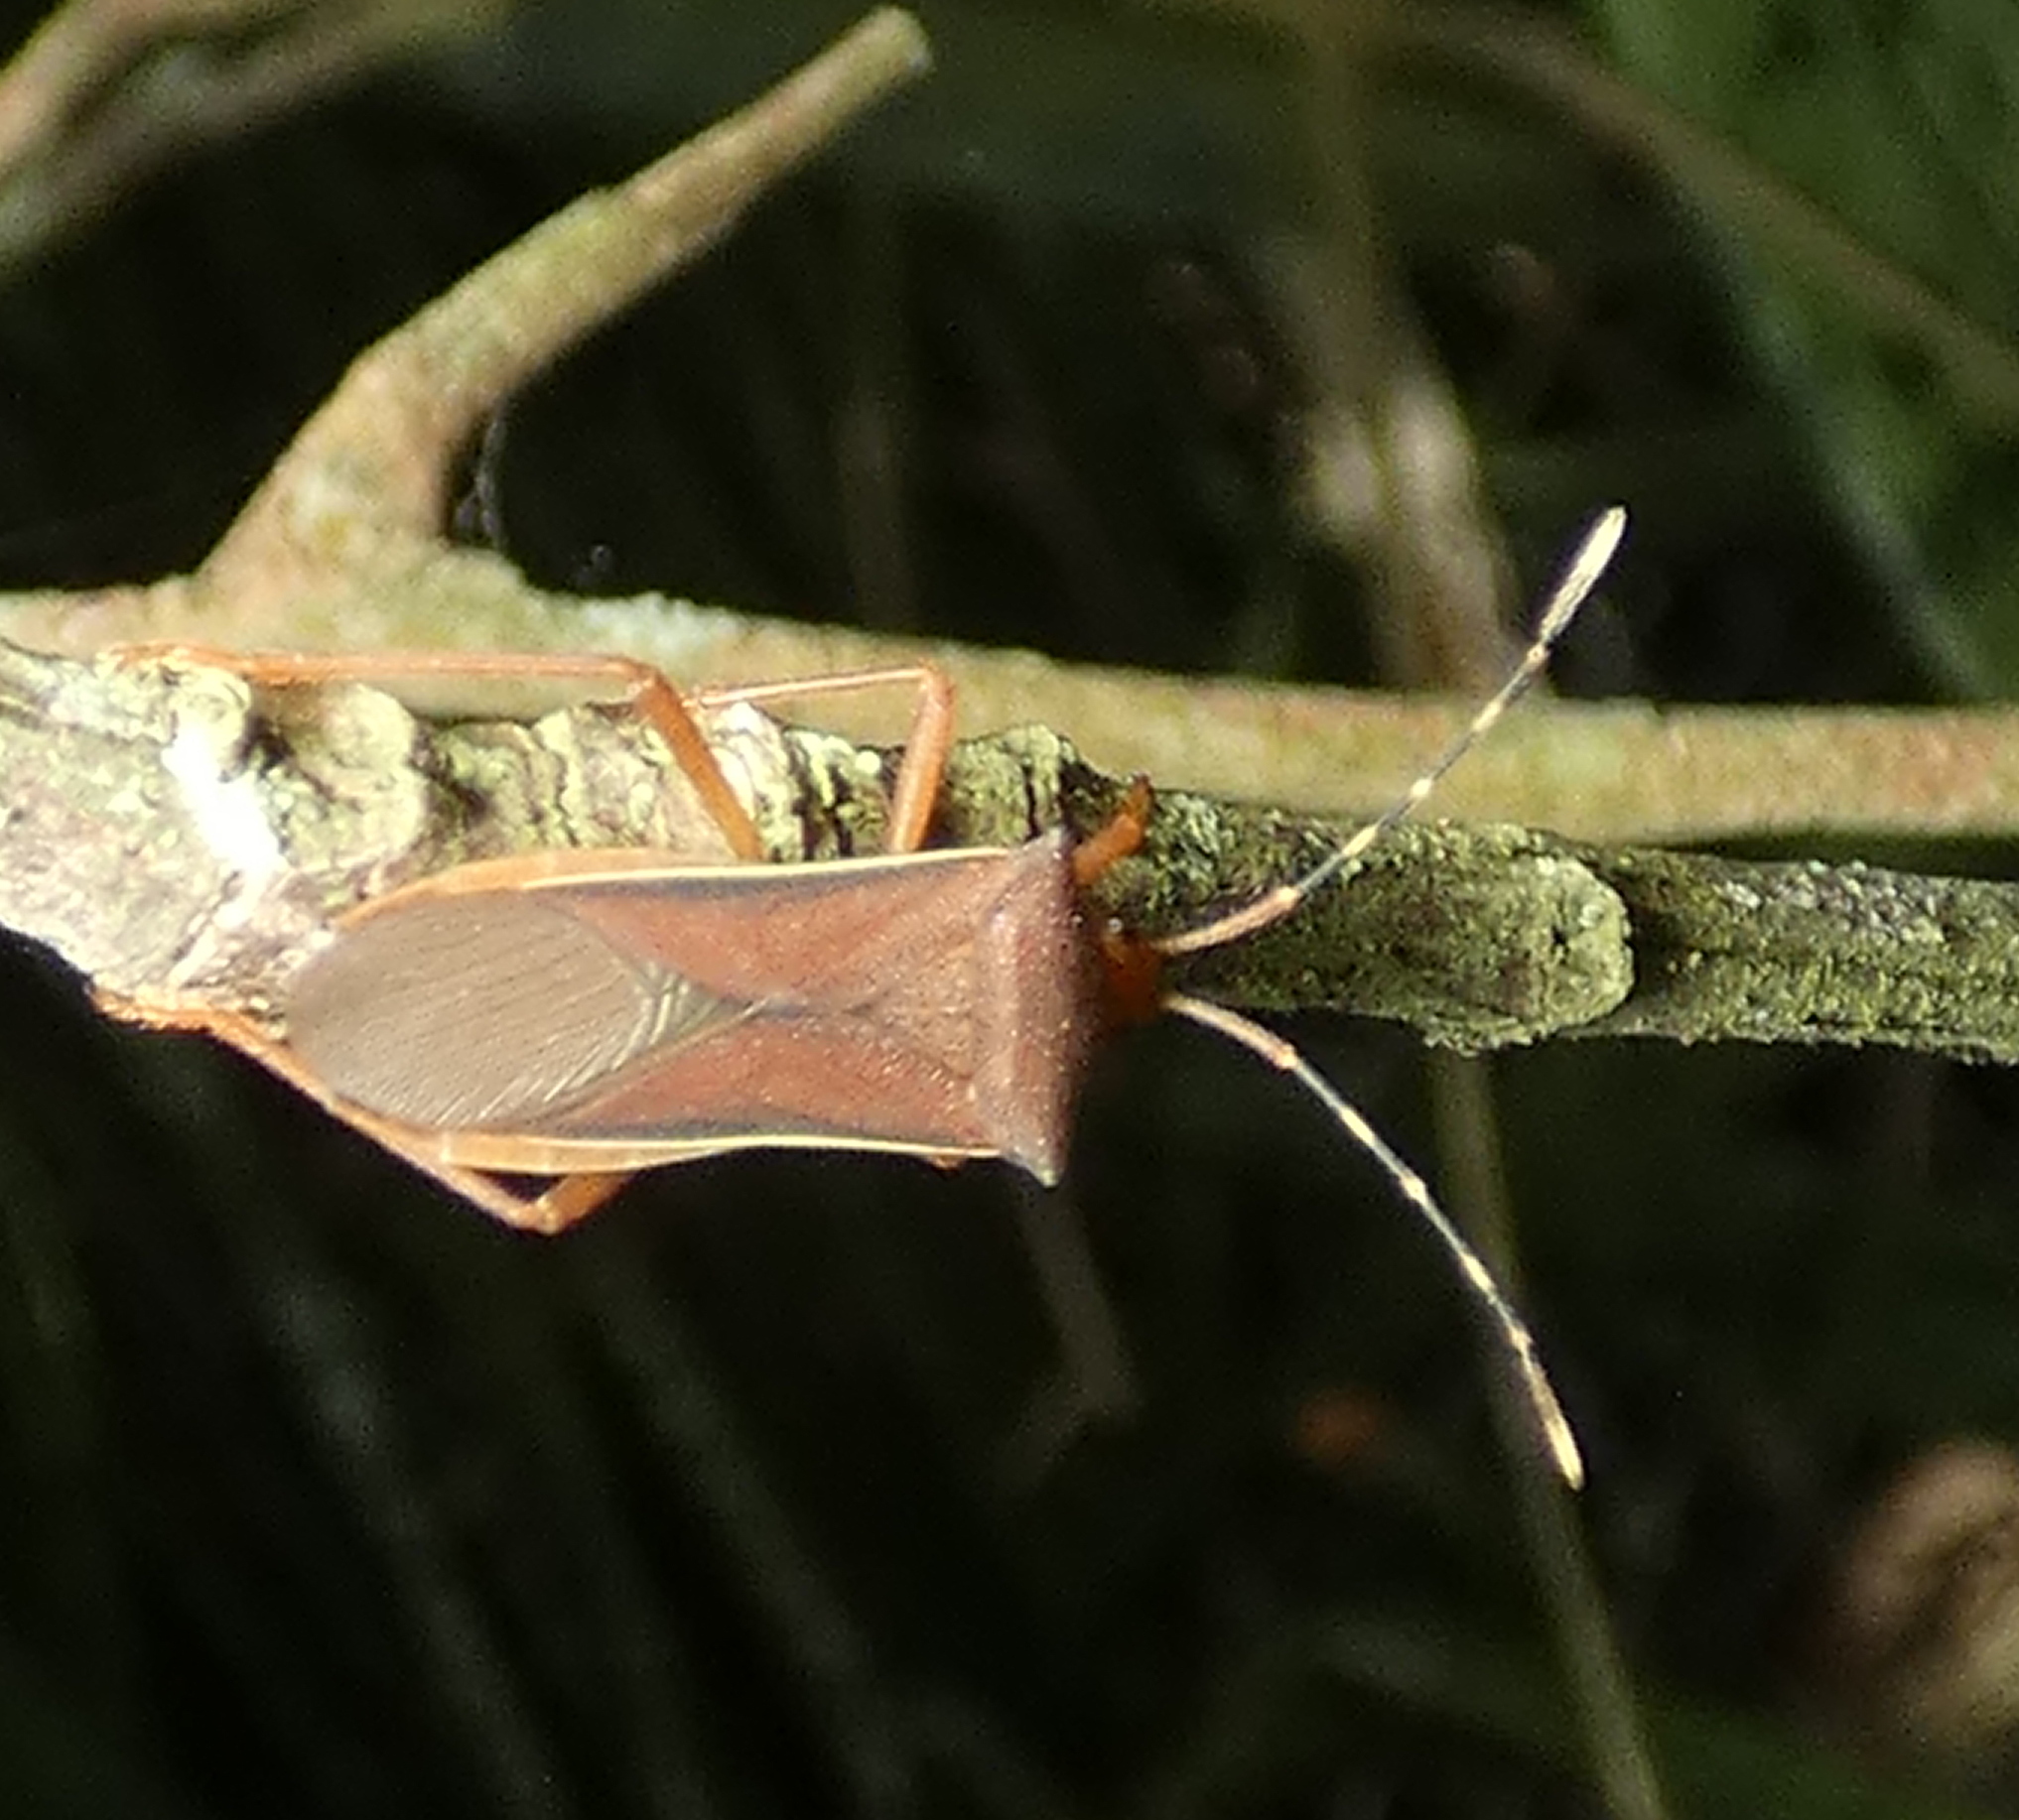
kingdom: Animalia
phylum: Arthropoda
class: Insecta
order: Hemiptera
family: Coreidae
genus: Anasa
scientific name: Anasa varicornis
